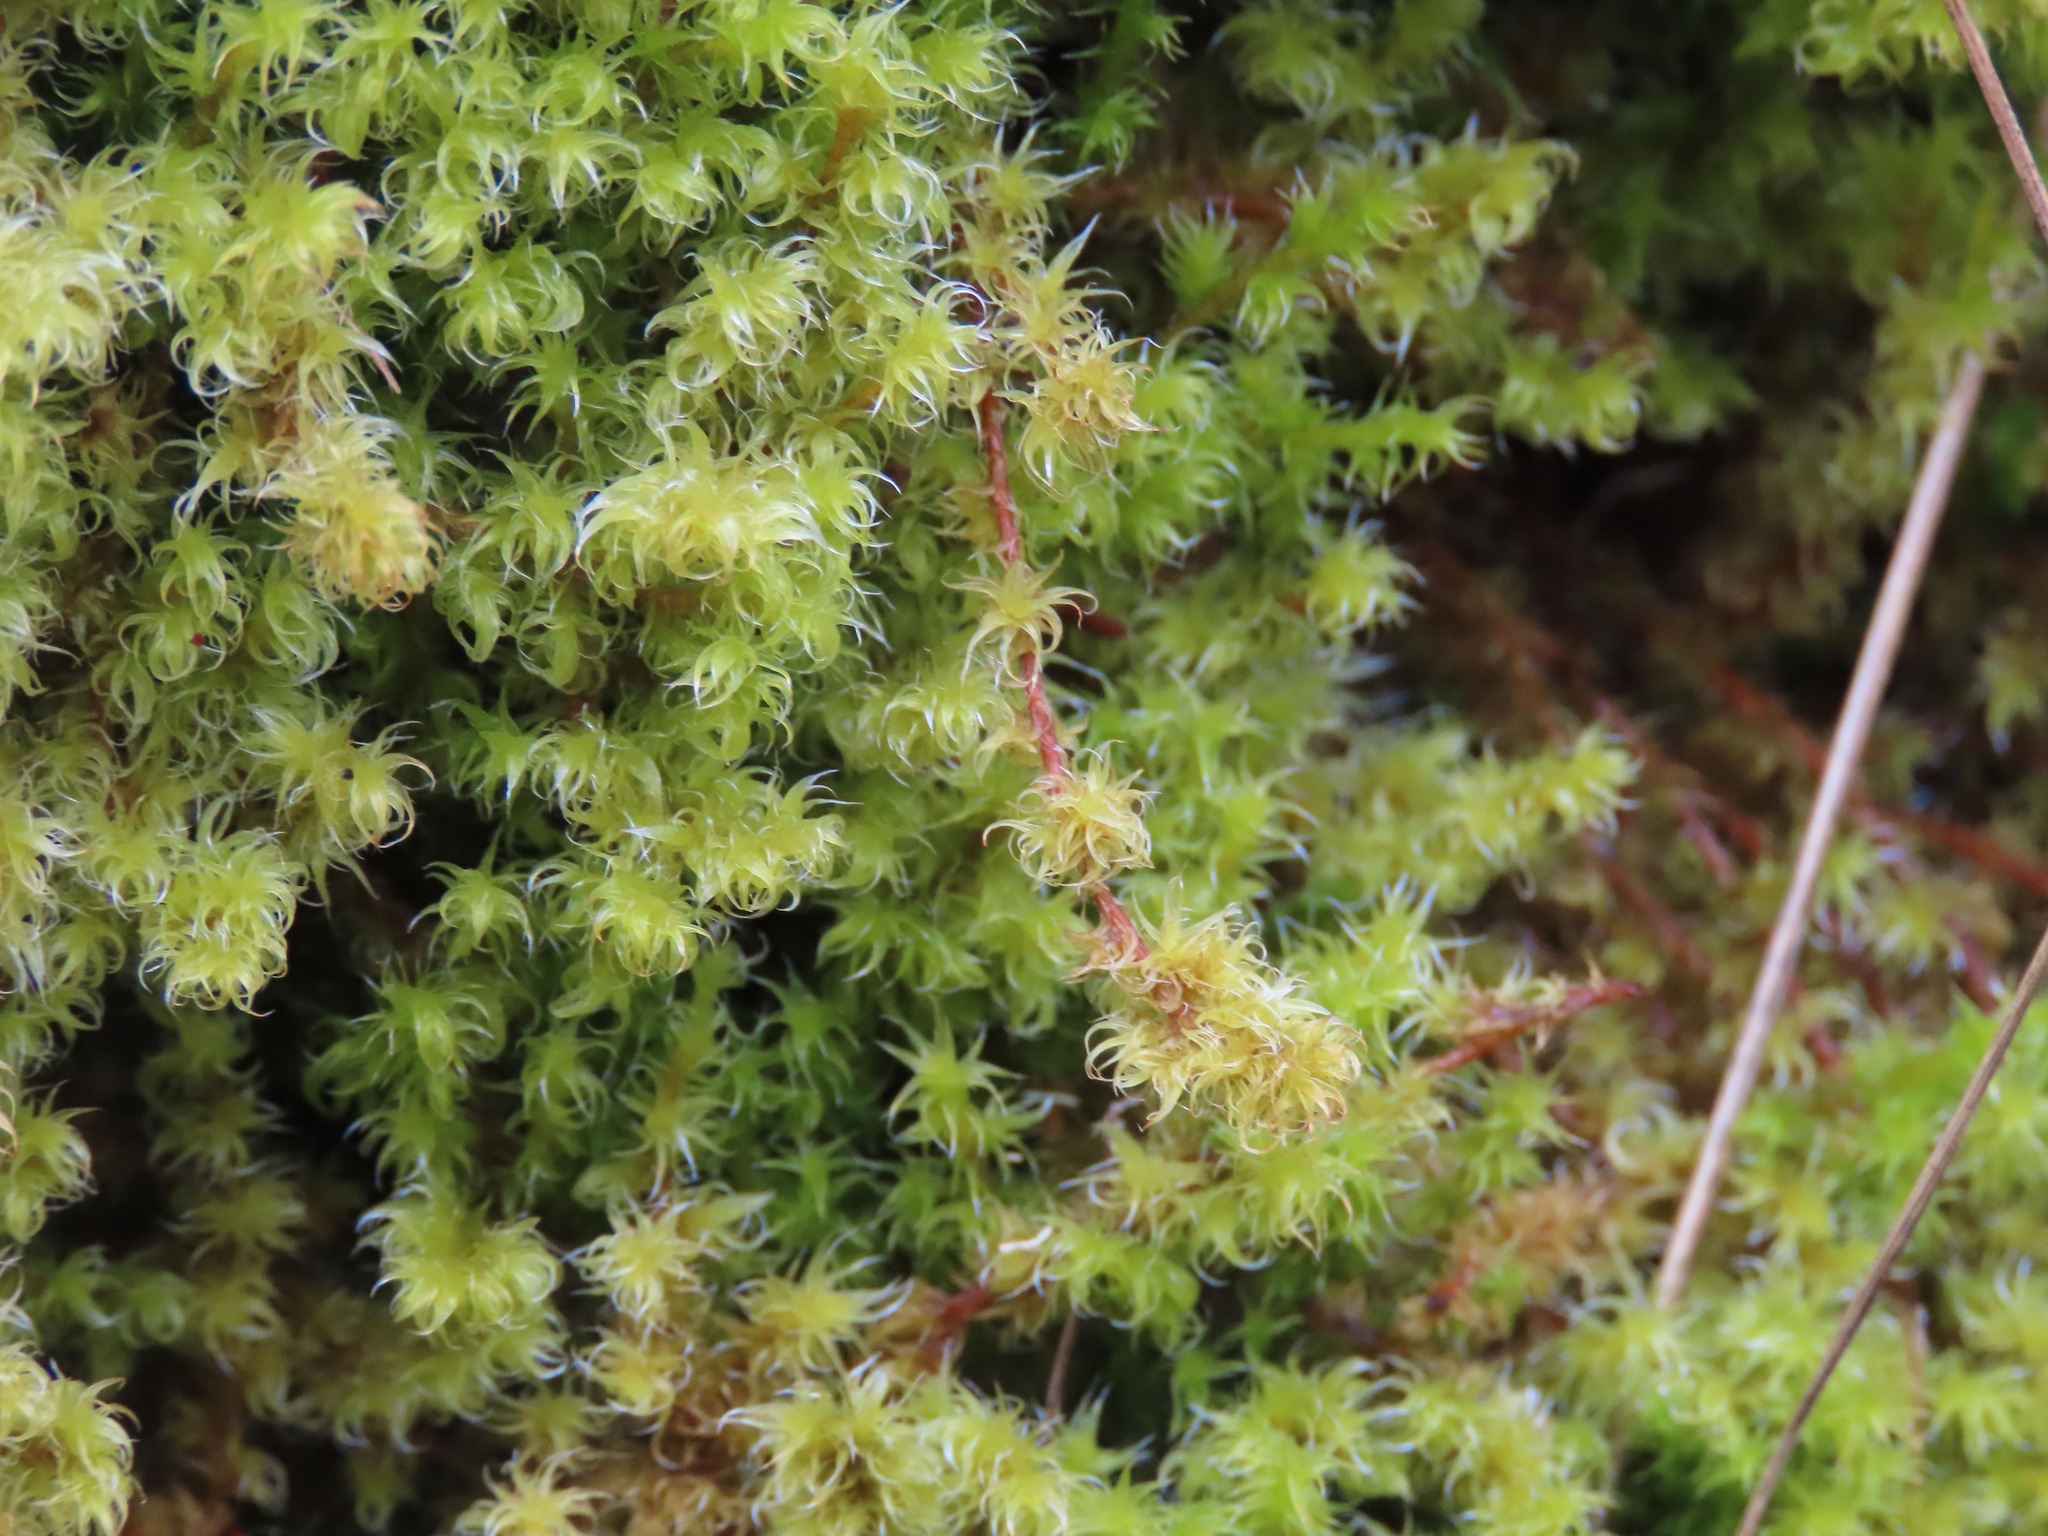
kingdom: Plantae
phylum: Bryophyta
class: Bryopsida
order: Grimmiales
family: Grimmiaceae
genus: Niphotrichum
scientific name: Niphotrichum elongatum
